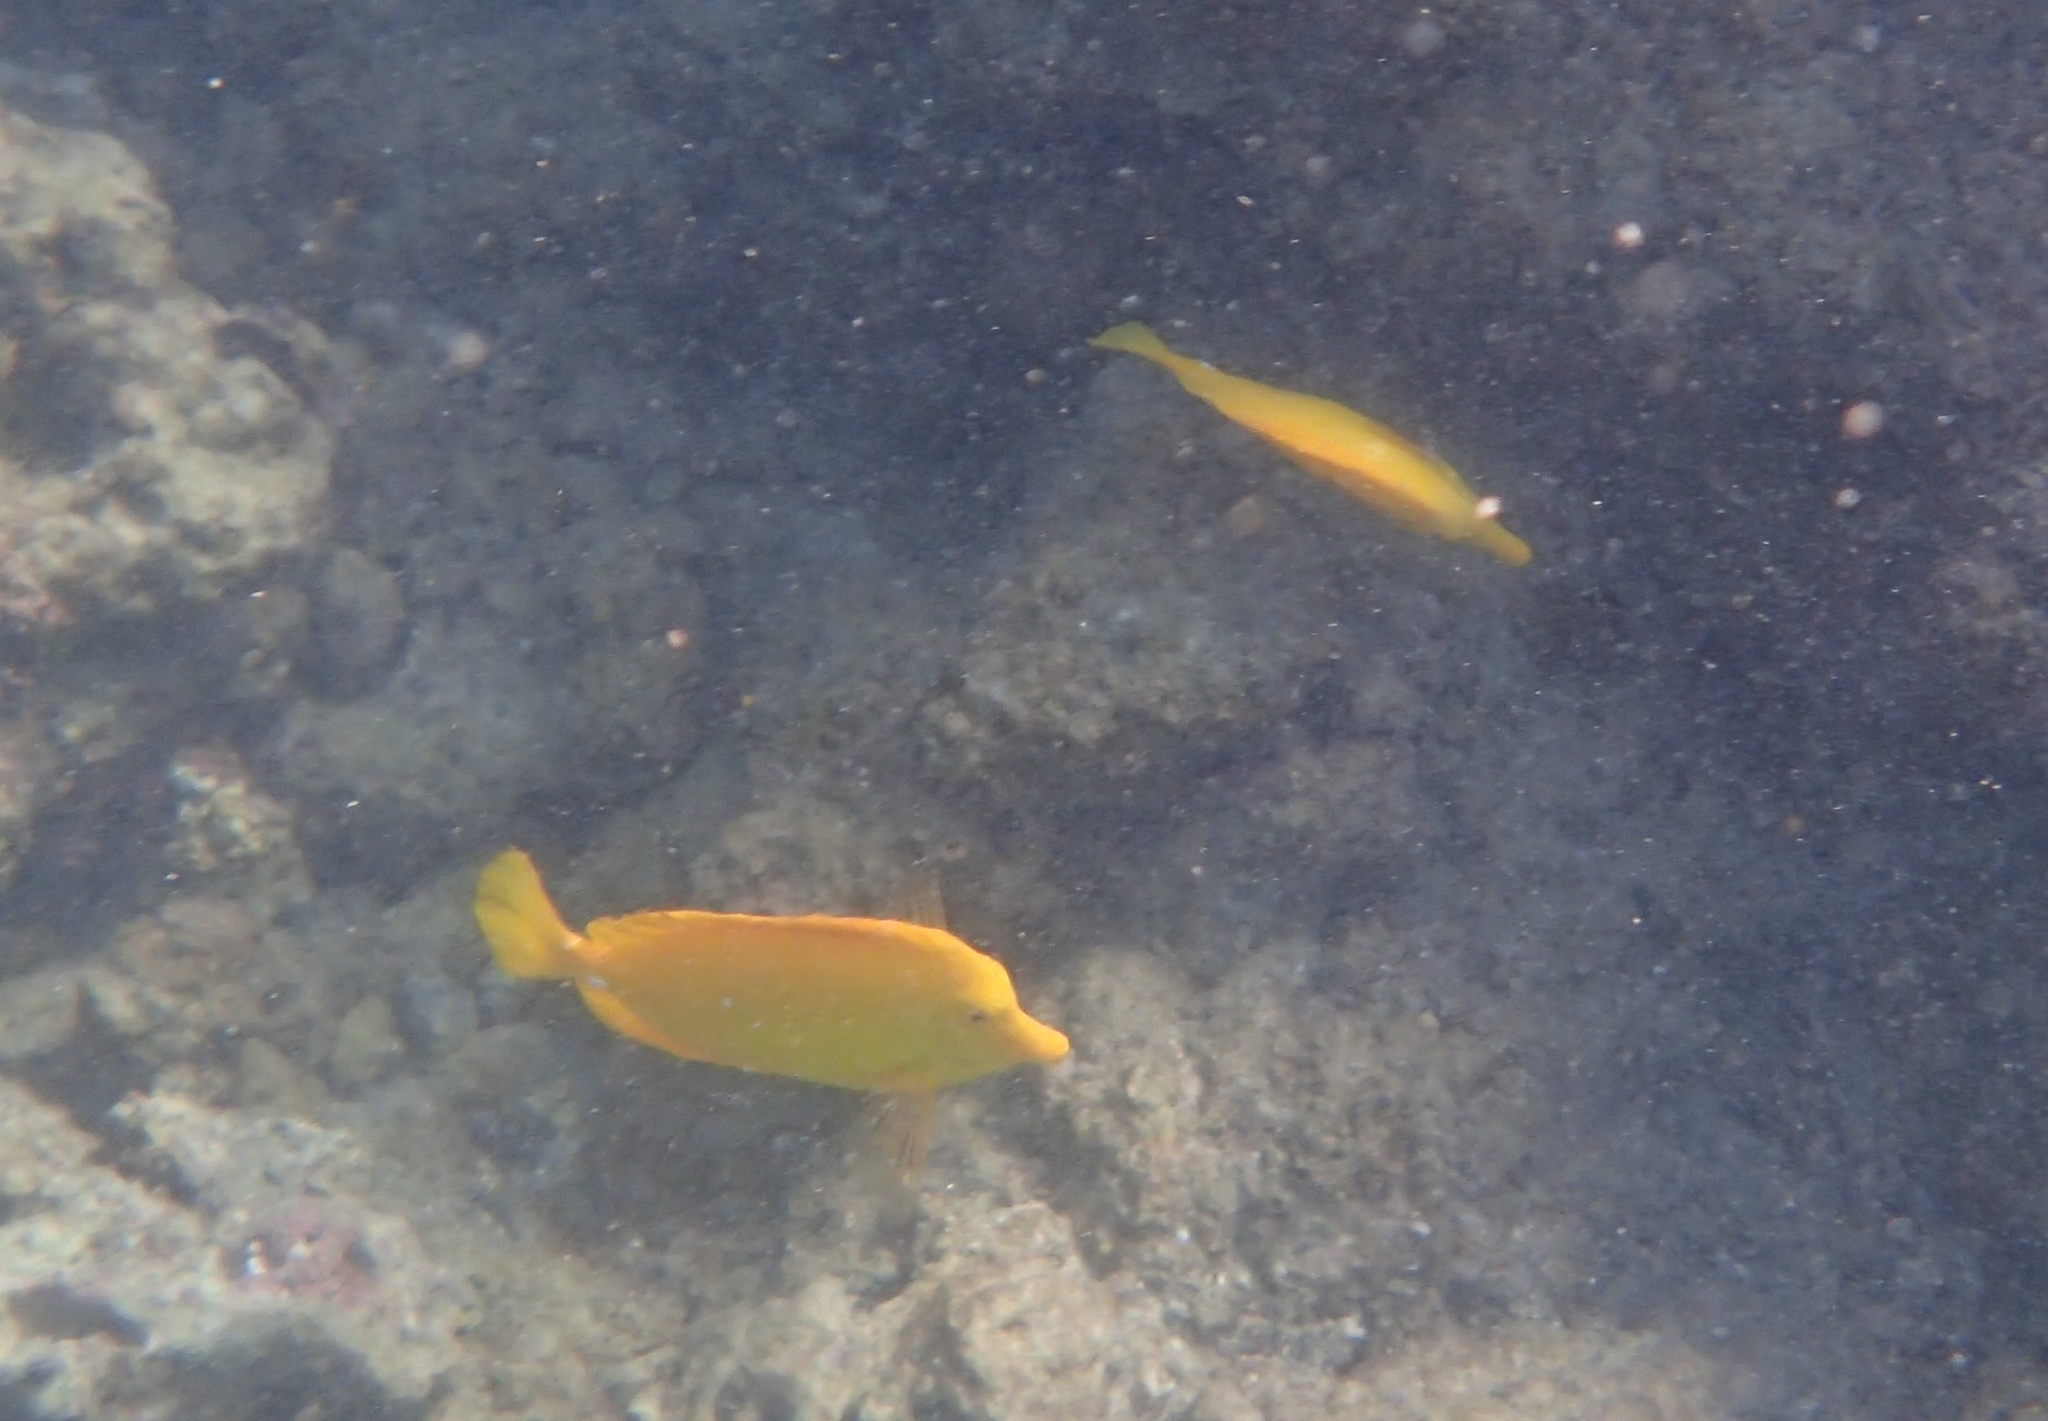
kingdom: Animalia
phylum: Chordata
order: Perciformes
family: Acanthuridae
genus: Zebrasoma
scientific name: Zebrasoma flavescens
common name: Yellow tang
